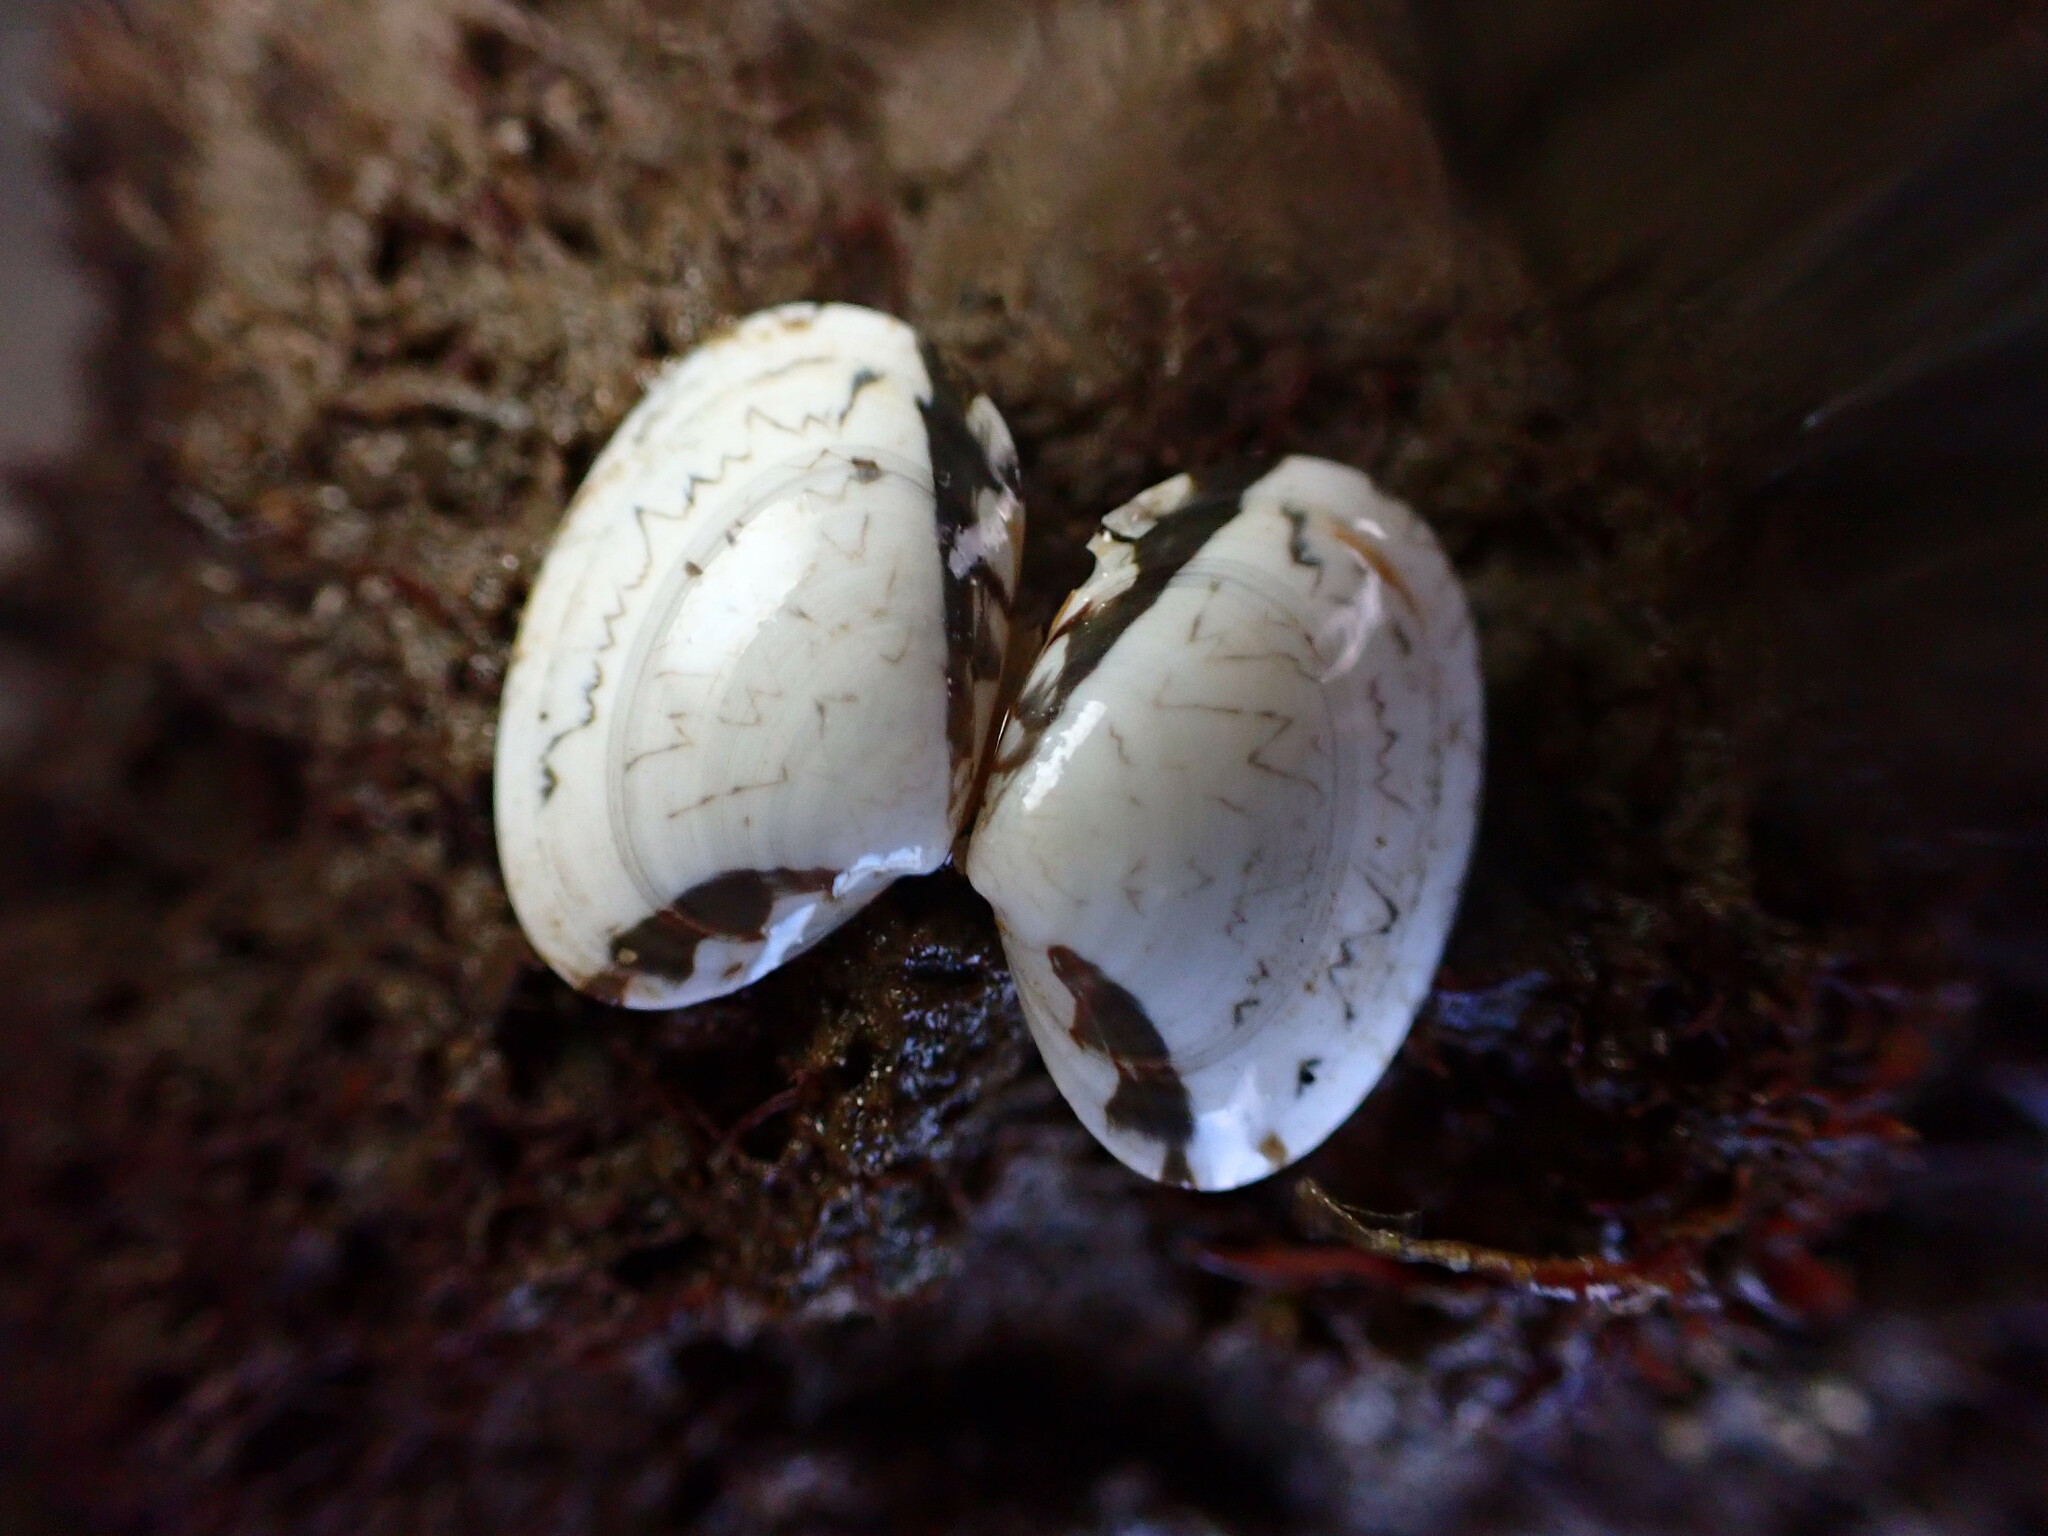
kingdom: Animalia
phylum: Mollusca
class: Bivalvia
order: Venerida
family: Veneridae
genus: Saxidomus
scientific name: Saxidomus nuttalli
